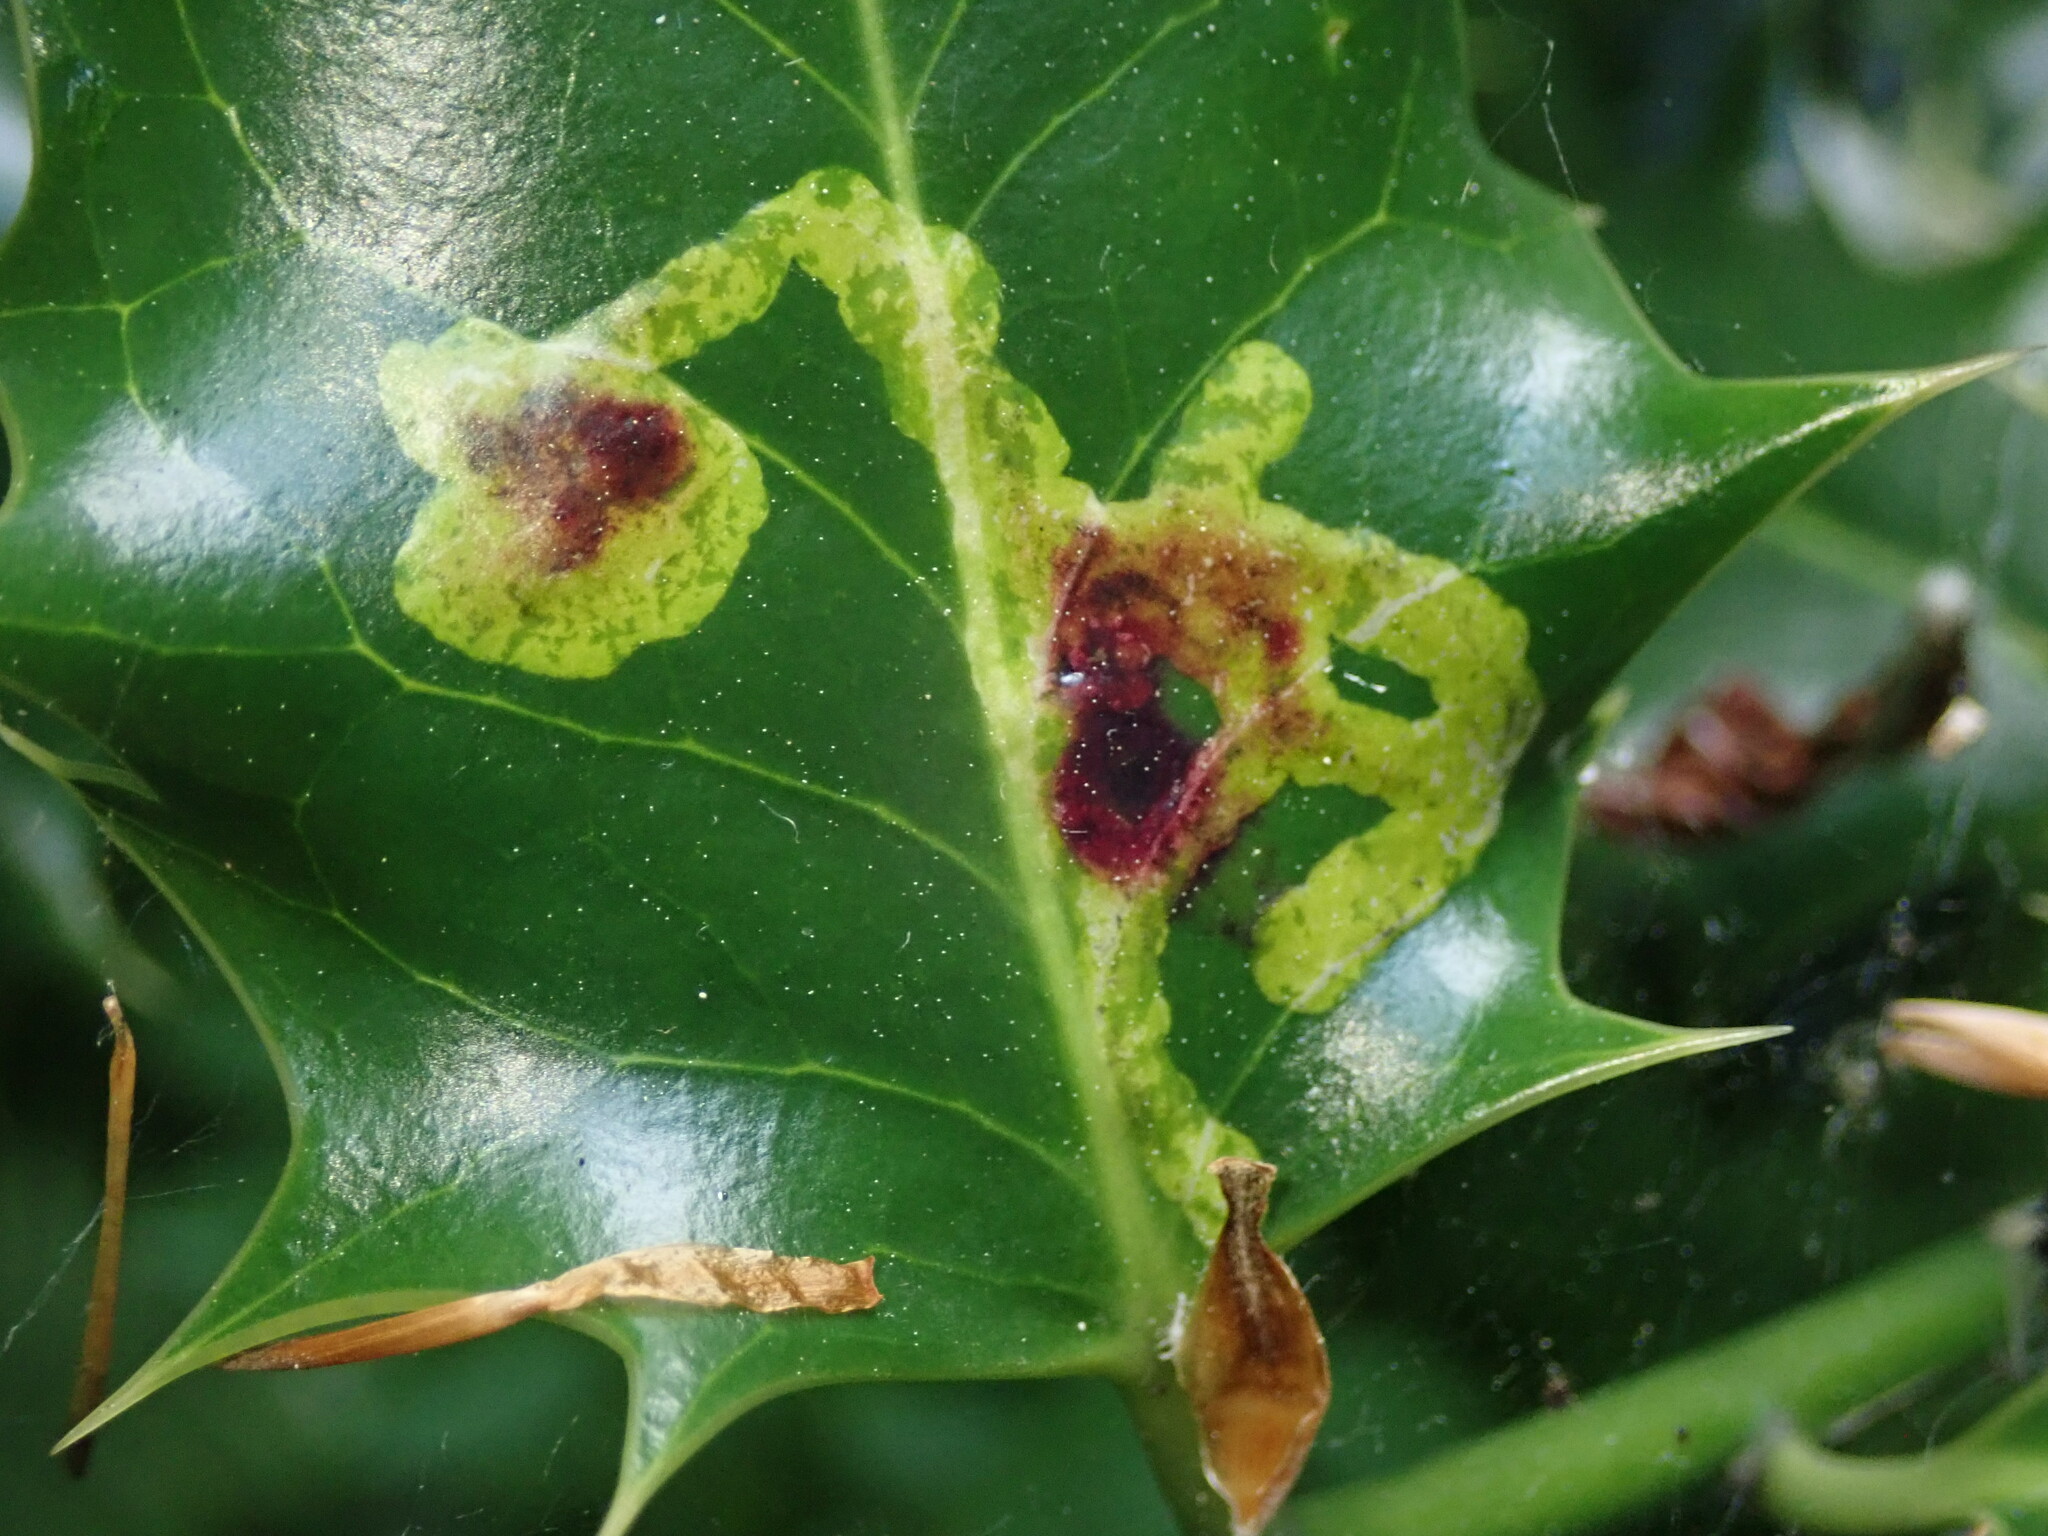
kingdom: Animalia
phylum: Arthropoda
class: Insecta
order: Diptera
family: Agromyzidae
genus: Phytomyza
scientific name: Phytomyza ilicis
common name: Holly leafminer
